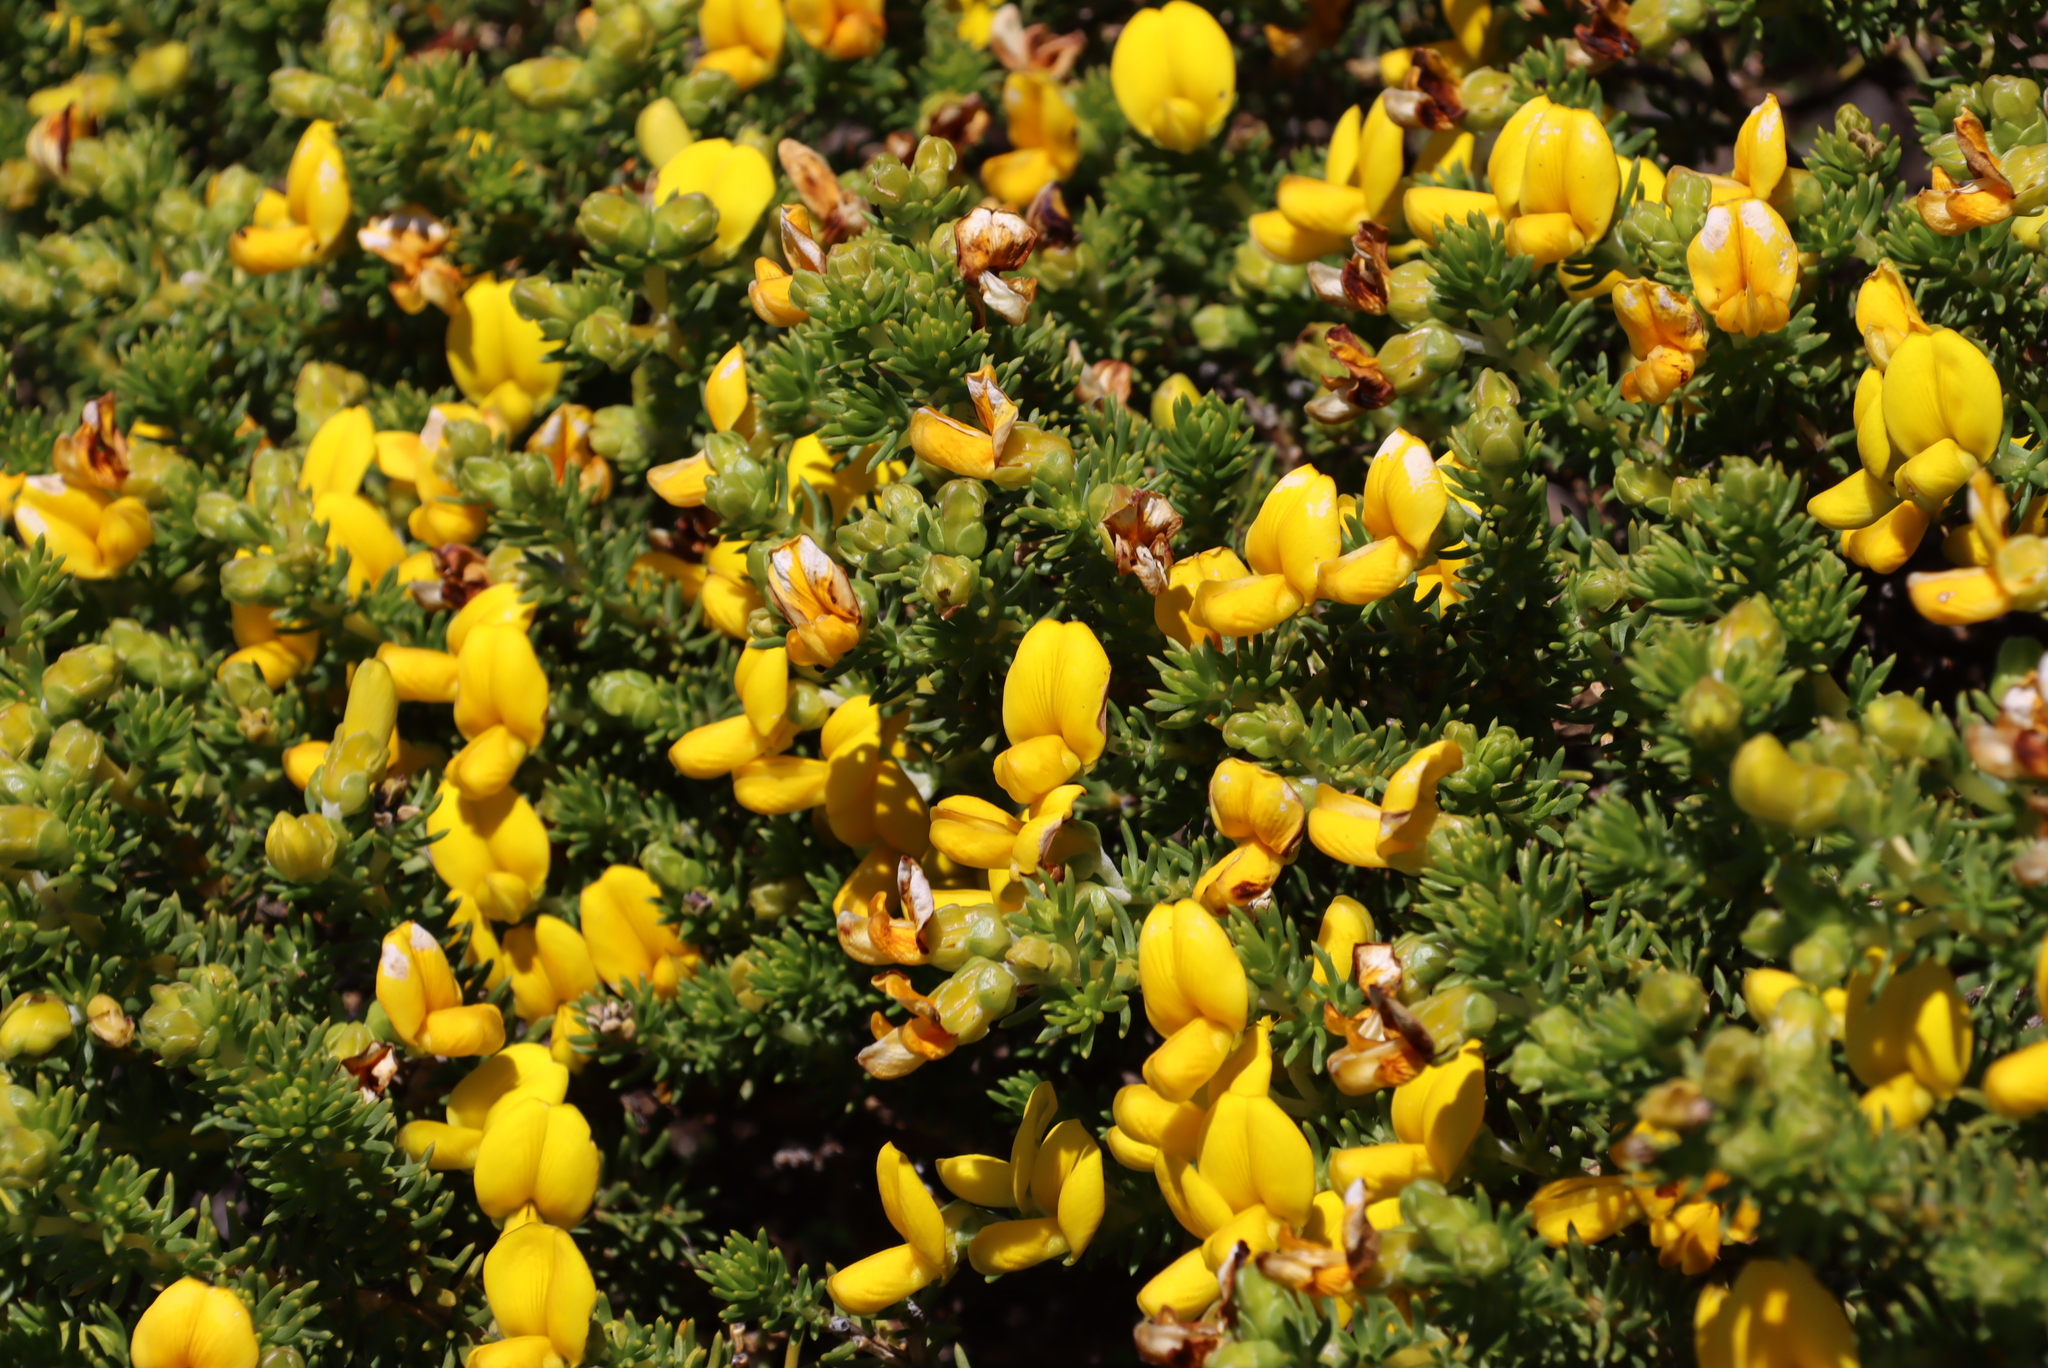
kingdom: Plantae
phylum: Tracheophyta
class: Magnoliopsida
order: Fabales
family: Fabaceae
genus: Aspalathus
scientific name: Aspalathus capensis
